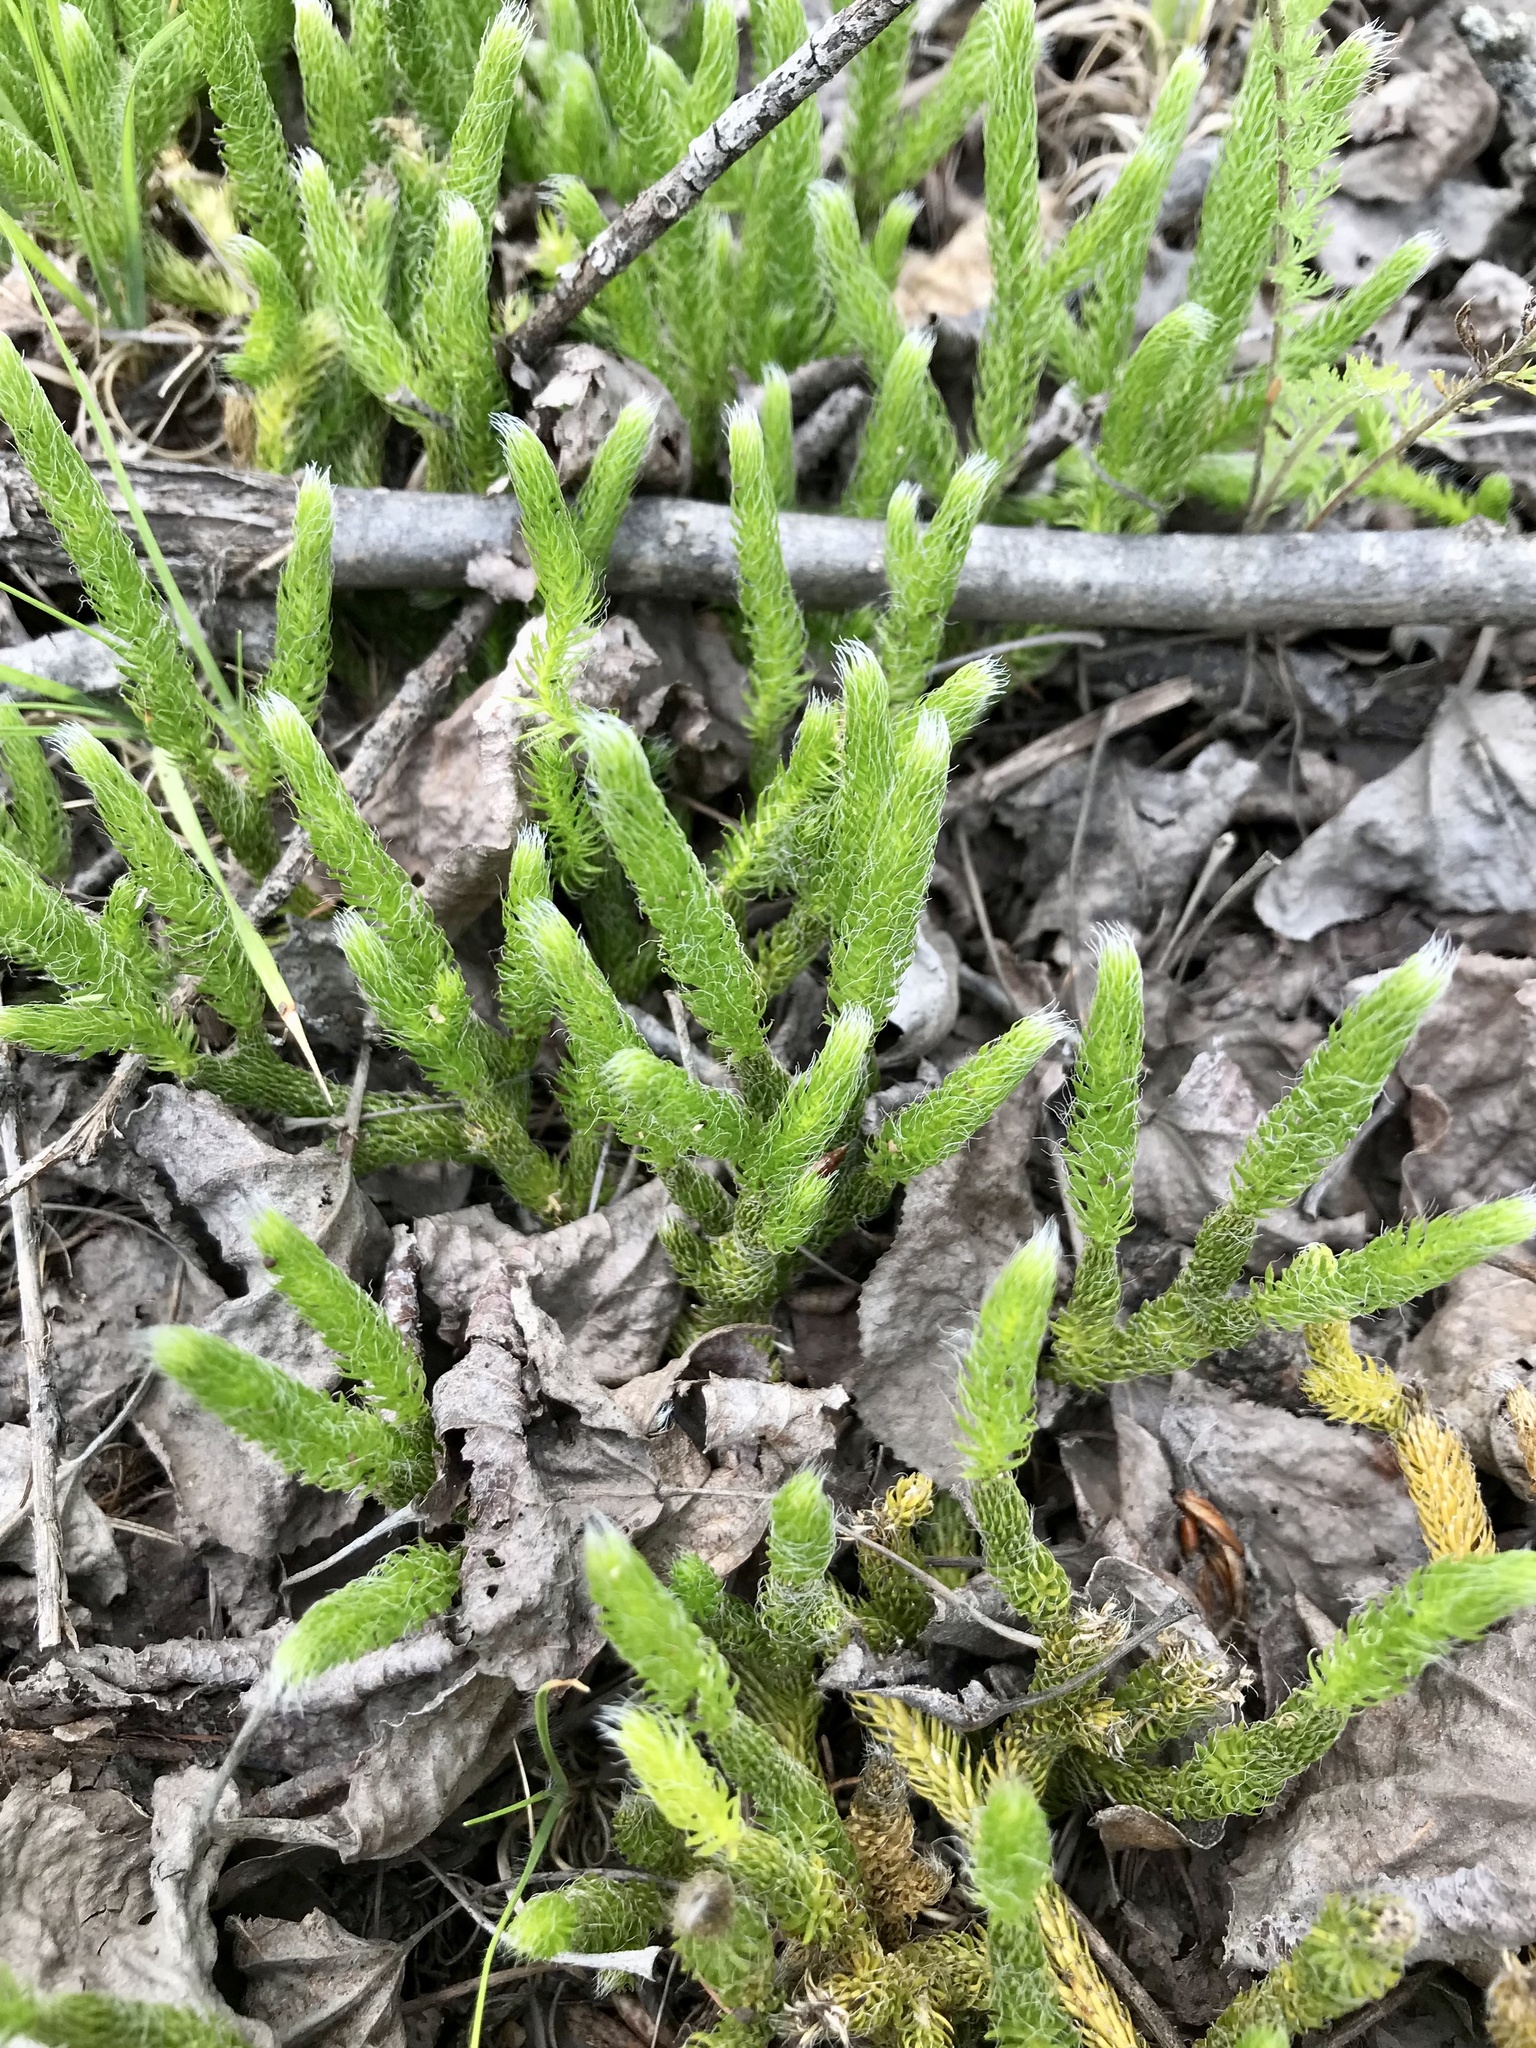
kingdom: Plantae
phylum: Tracheophyta
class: Lycopodiopsida
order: Lycopodiales
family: Lycopodiaceae
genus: Lycopodium
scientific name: Lycopodium lagopus
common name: One-cone clubmoss
